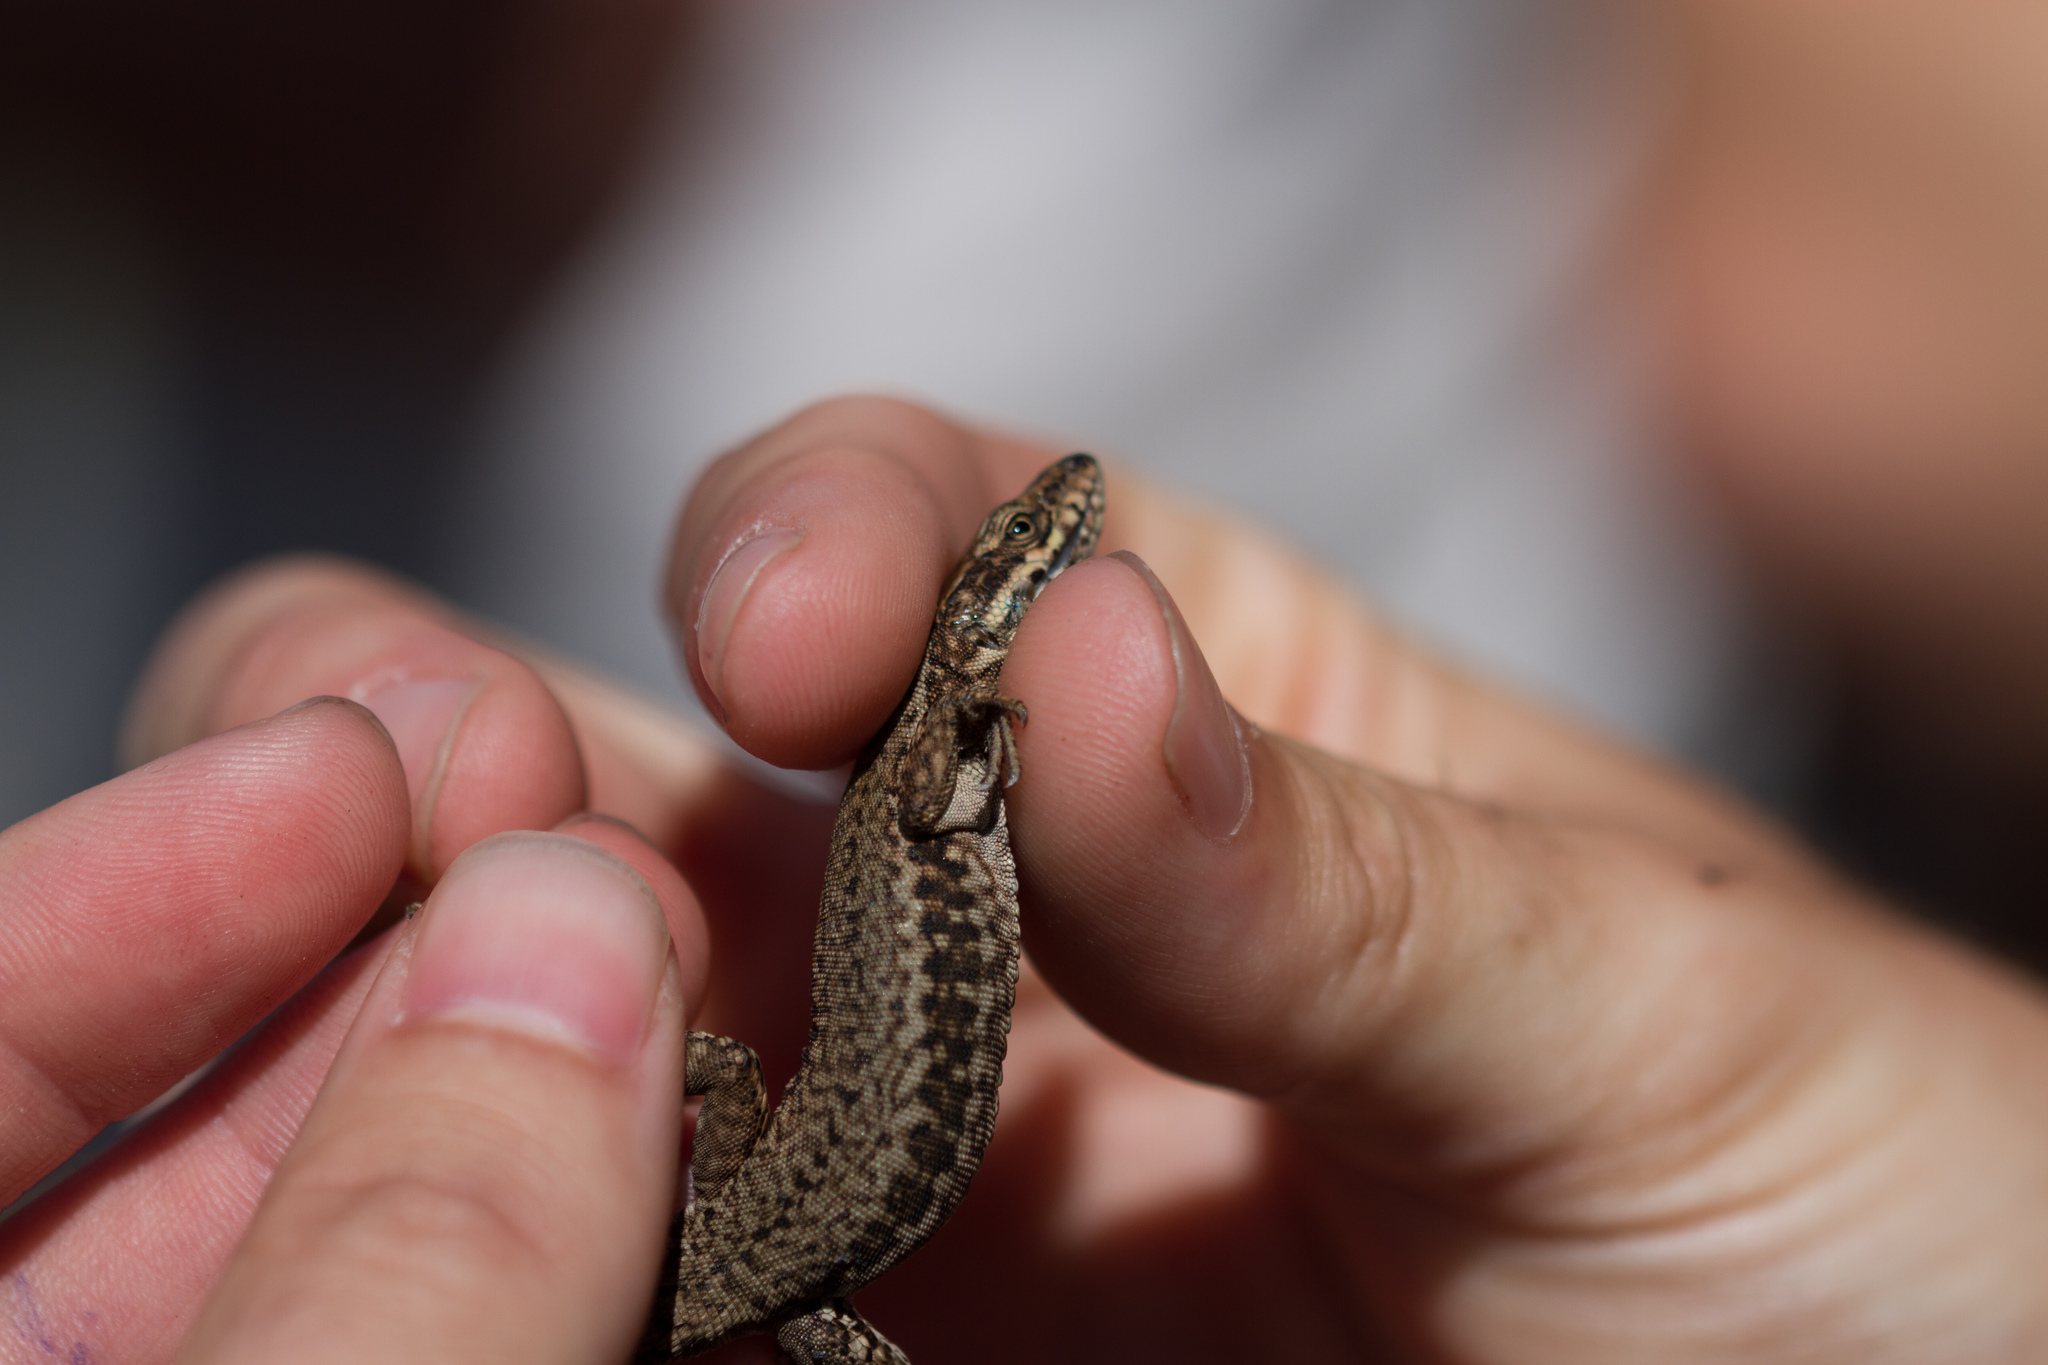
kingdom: Animalia
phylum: Chordata
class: Squamata
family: Lacertidae
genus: Podarcis
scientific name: Podarcis muralis
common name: Common wall lizard
